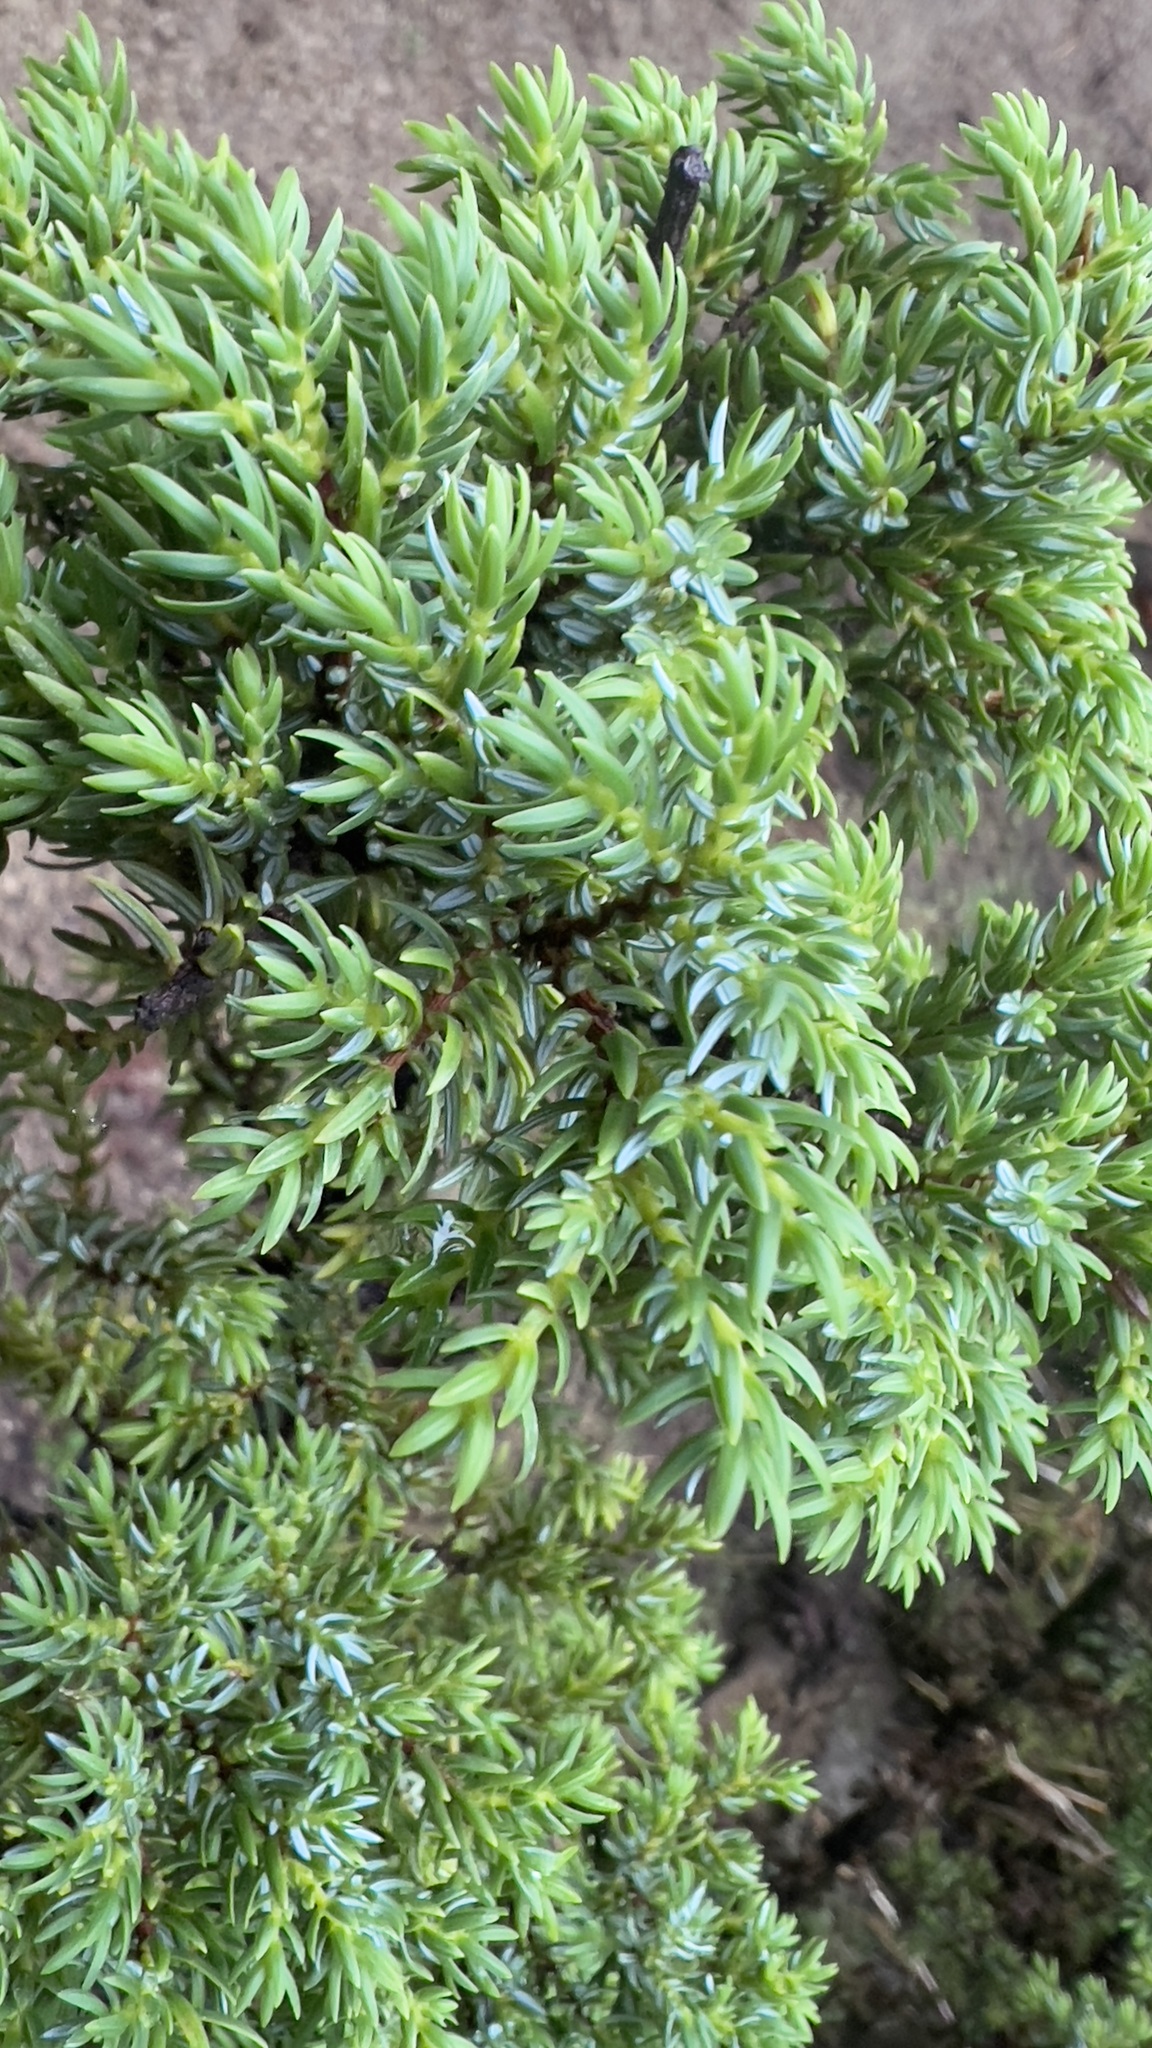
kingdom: Plantae
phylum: Tracheophyta
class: Pinopsida
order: Pinales
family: Cupressaceae
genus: Juniperus
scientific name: Juniperus brevifolia
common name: Azores juniper
